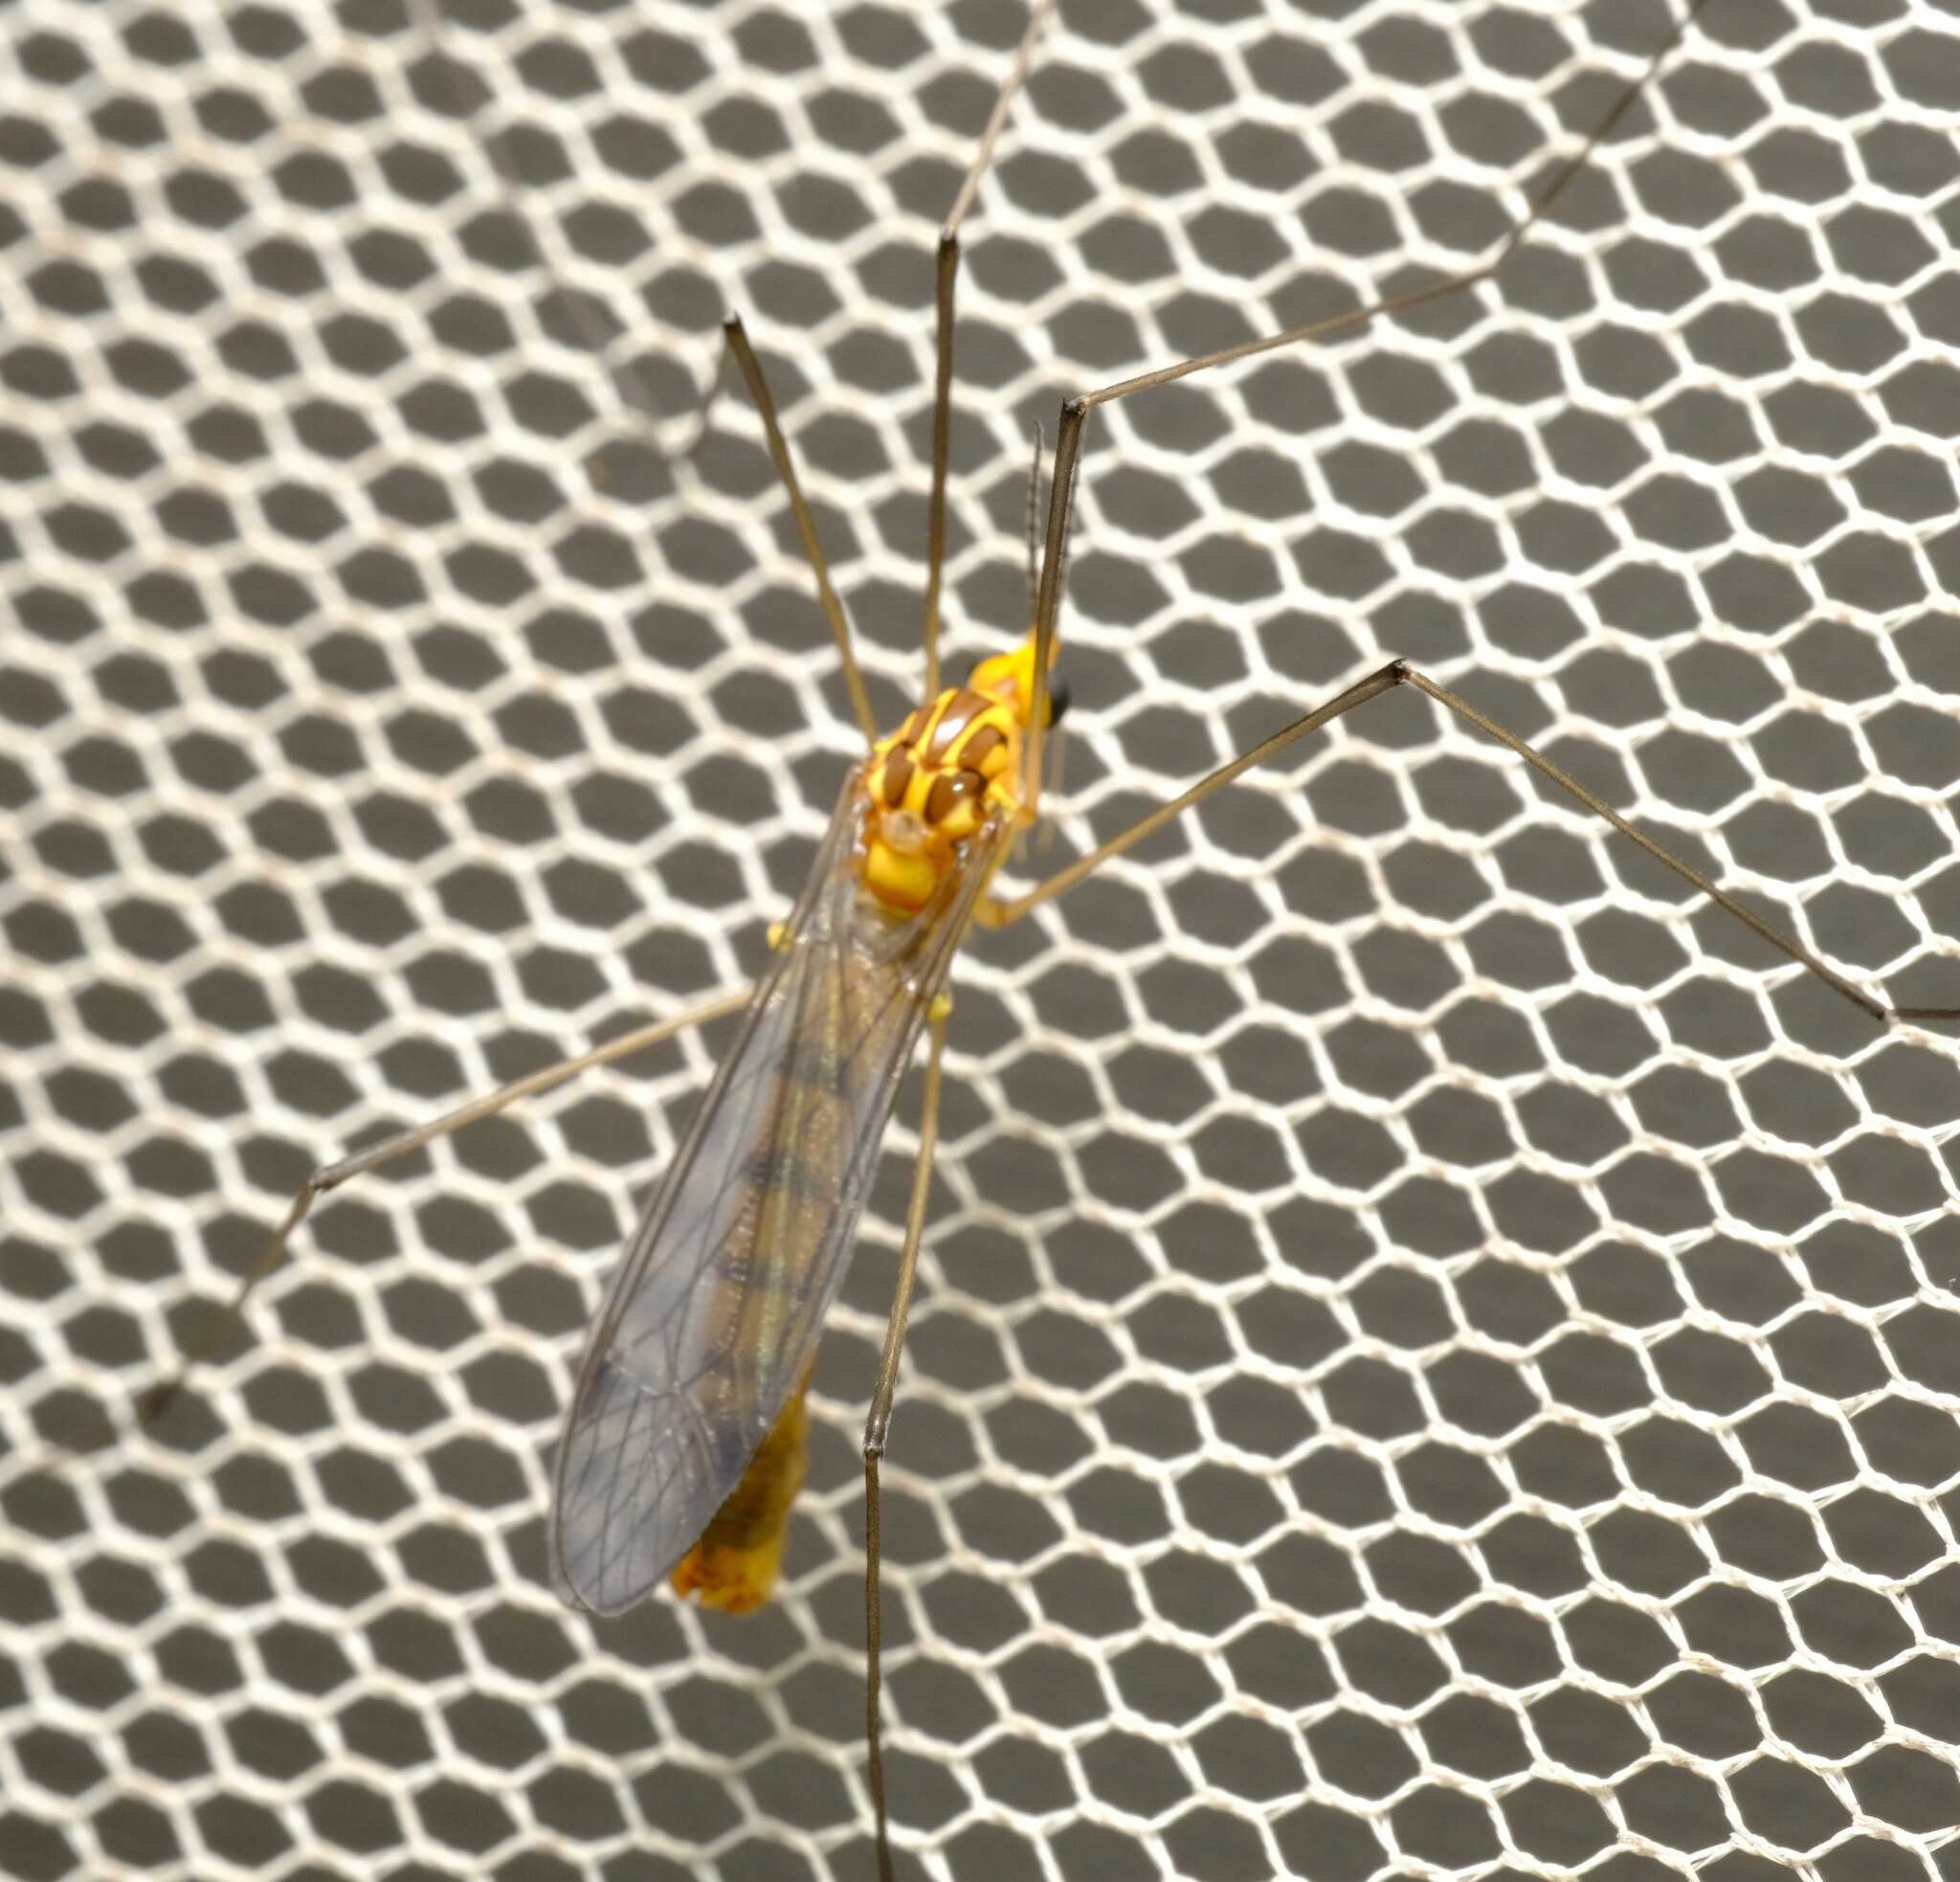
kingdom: Animalia
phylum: Arthropoda
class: Insecta
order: Diptera
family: Tipulidae
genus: Nephrotoma
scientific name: Nephrotoma australasiae
